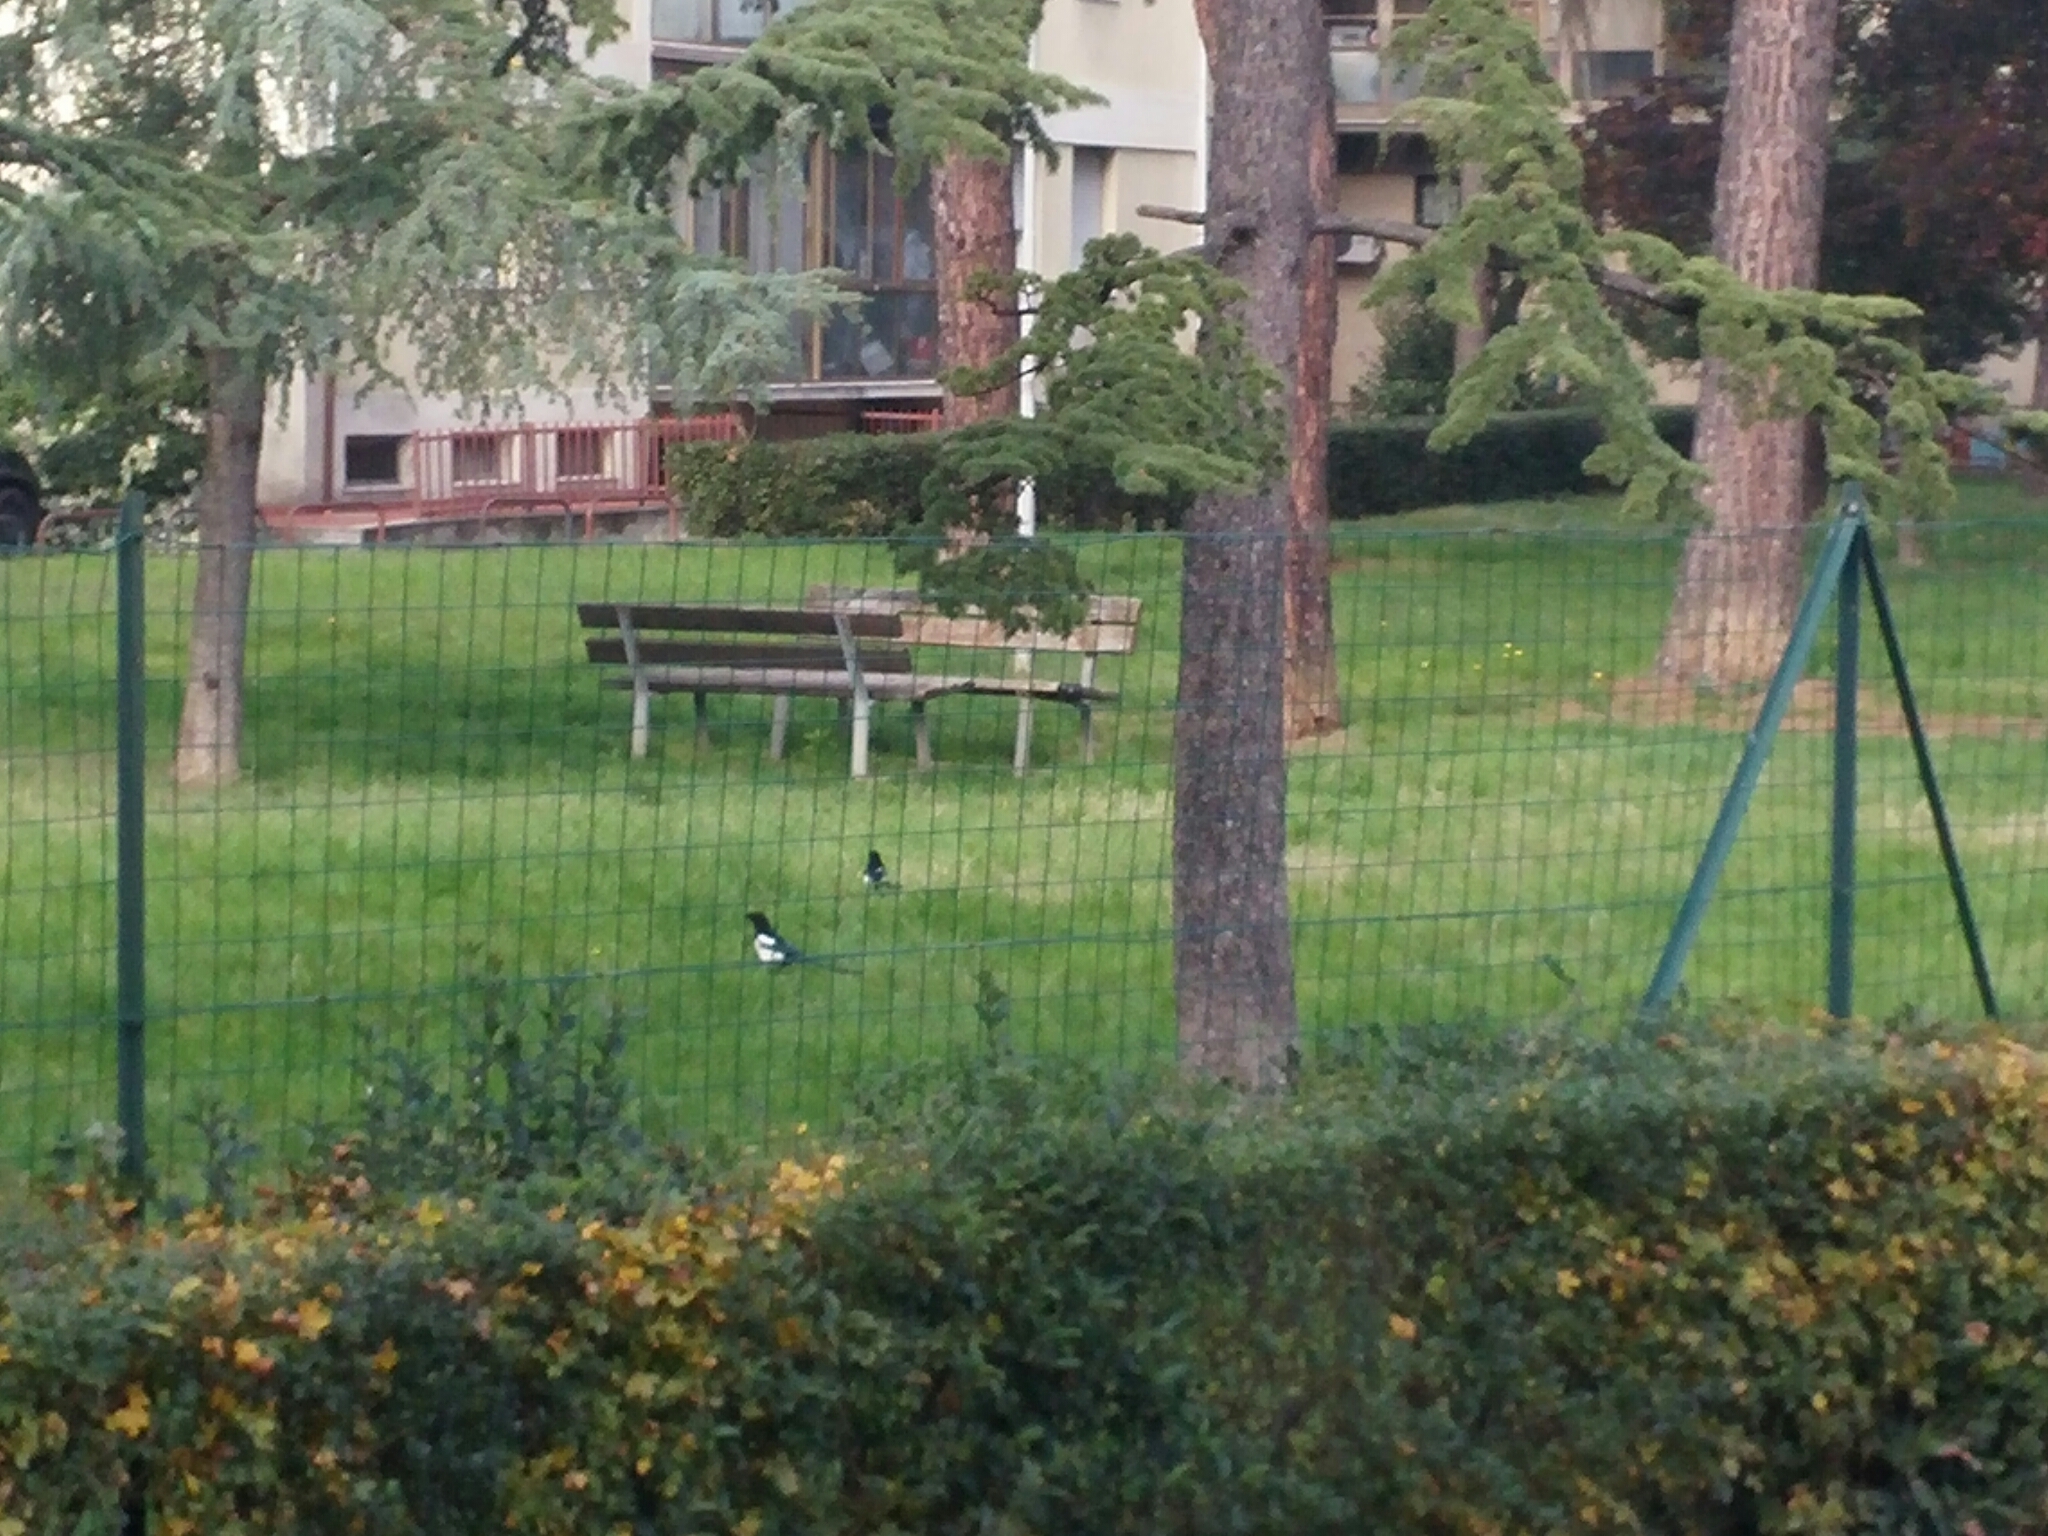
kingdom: Animalia
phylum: Chordata
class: Aves
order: Passeriformes
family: Corvidae
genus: Pica
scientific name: Pica pica
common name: Eurasian magpie
